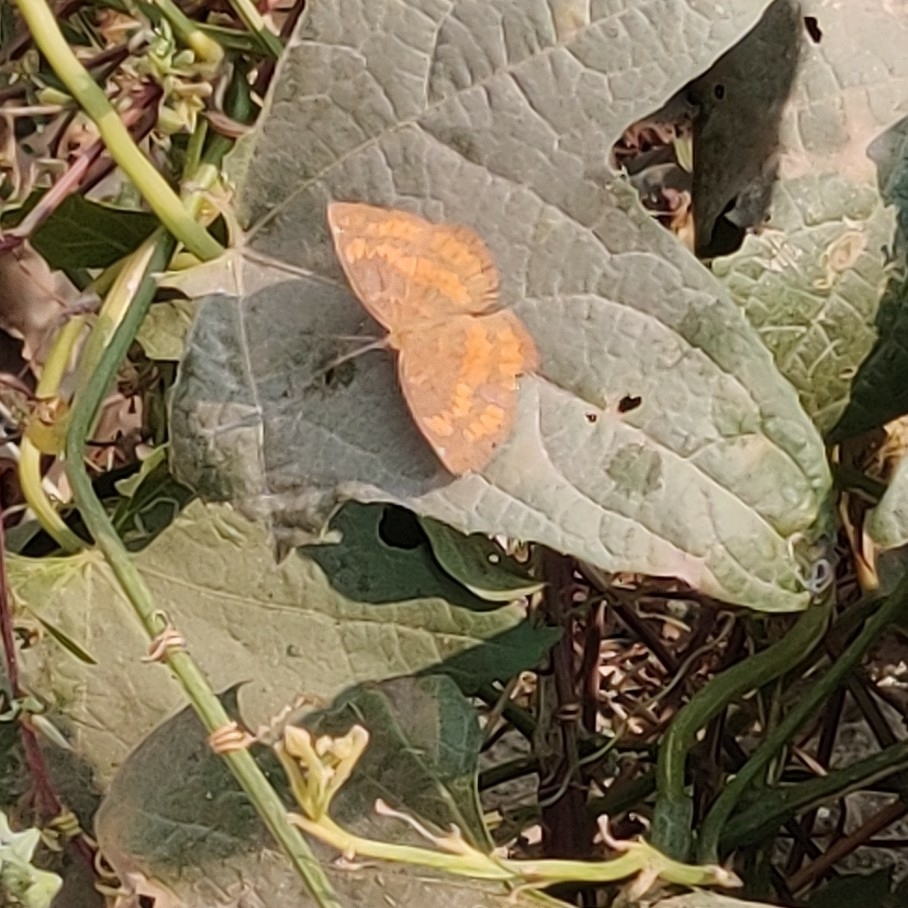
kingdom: Animalia
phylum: Arthropoda
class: Insecta
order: Lepidoptera
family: Nymphalidae
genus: Ariadne
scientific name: Ariadne merione
